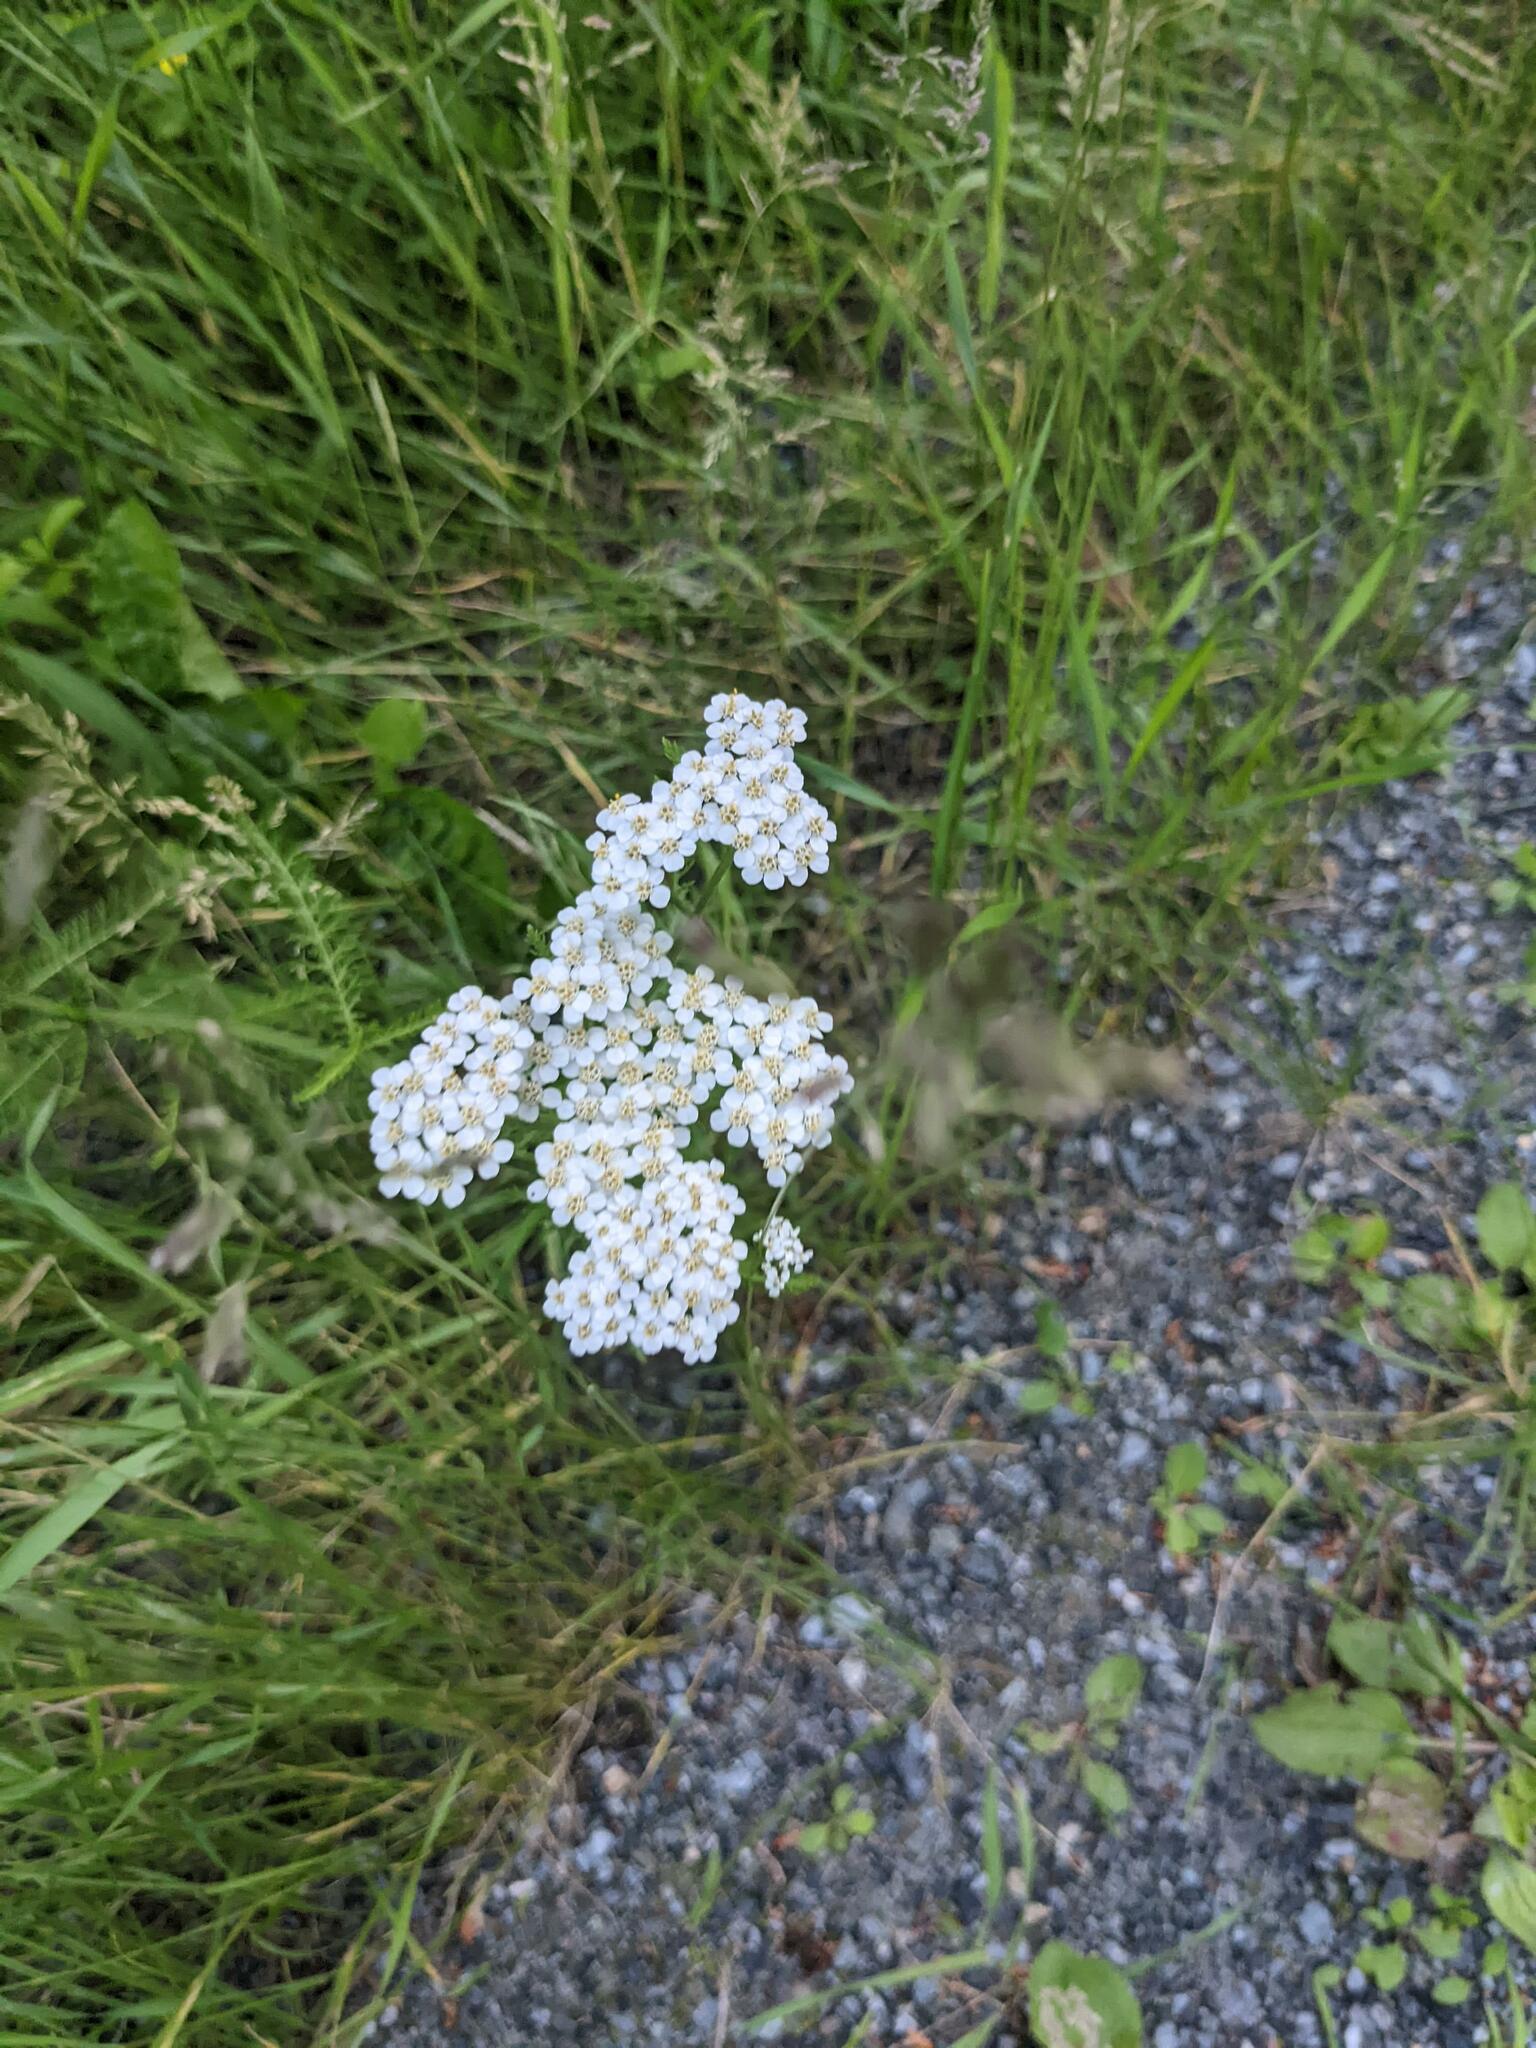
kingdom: Plantae
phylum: Tracheophyta
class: Magnoliopsida
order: Asterales
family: Asteraceae
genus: Achillea
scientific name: Achillea millefolium
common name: Yarrow
